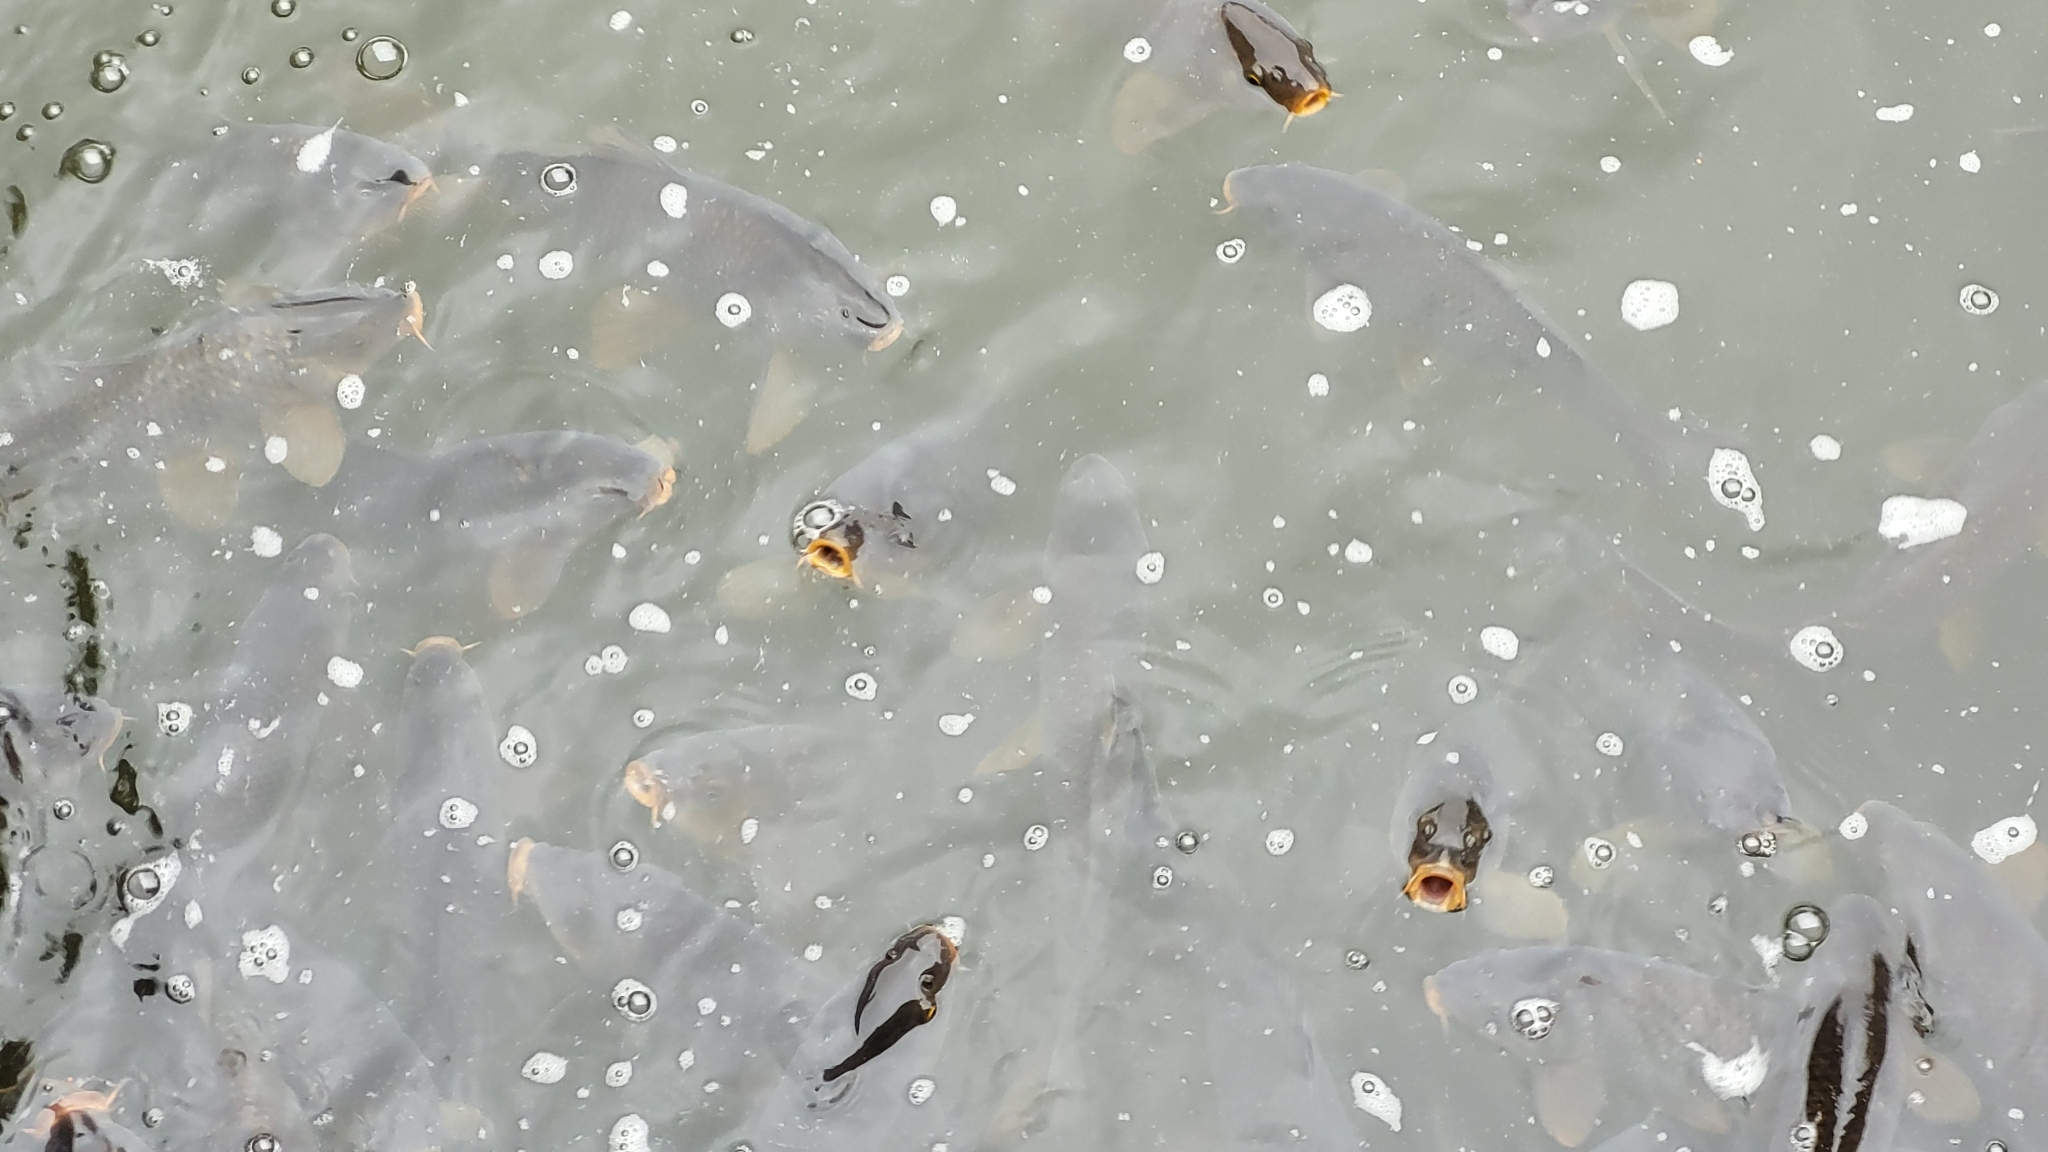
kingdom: Animalia
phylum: Chordata
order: Cypriniformes
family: Cyprinidae
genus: Cyprinus
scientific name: Cyprinus carpio
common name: Common carp
